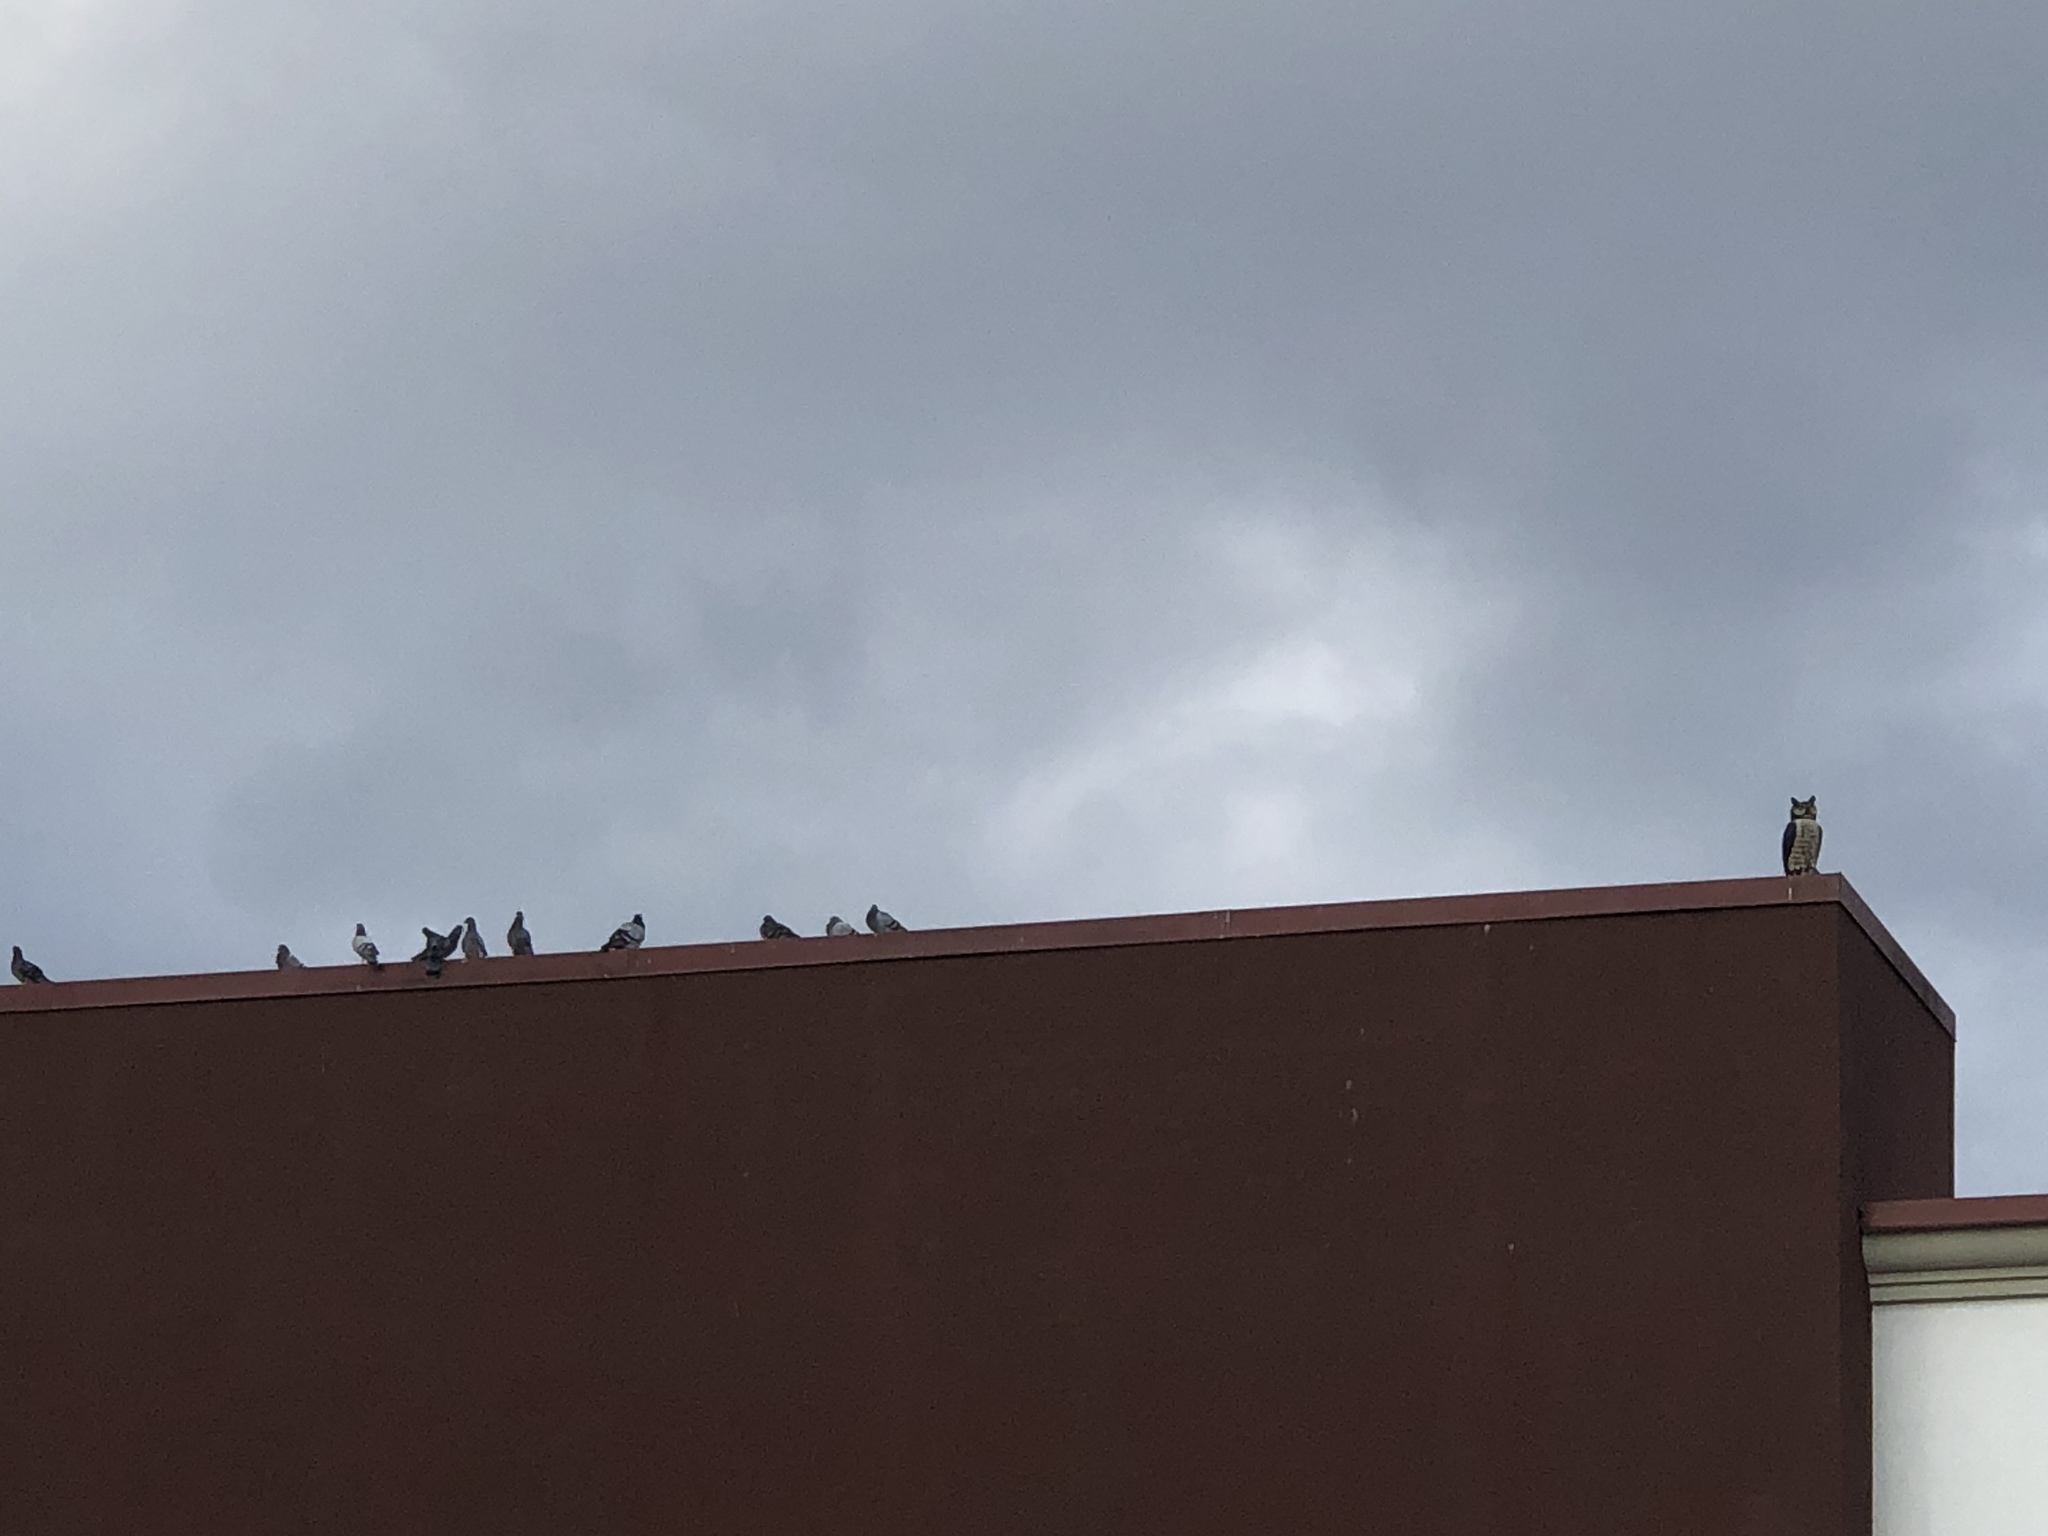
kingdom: Animalia
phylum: Chordata
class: Aves
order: Columbiformes
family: Columbidae
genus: Columba
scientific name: Columba livia
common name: Rock pigeon
